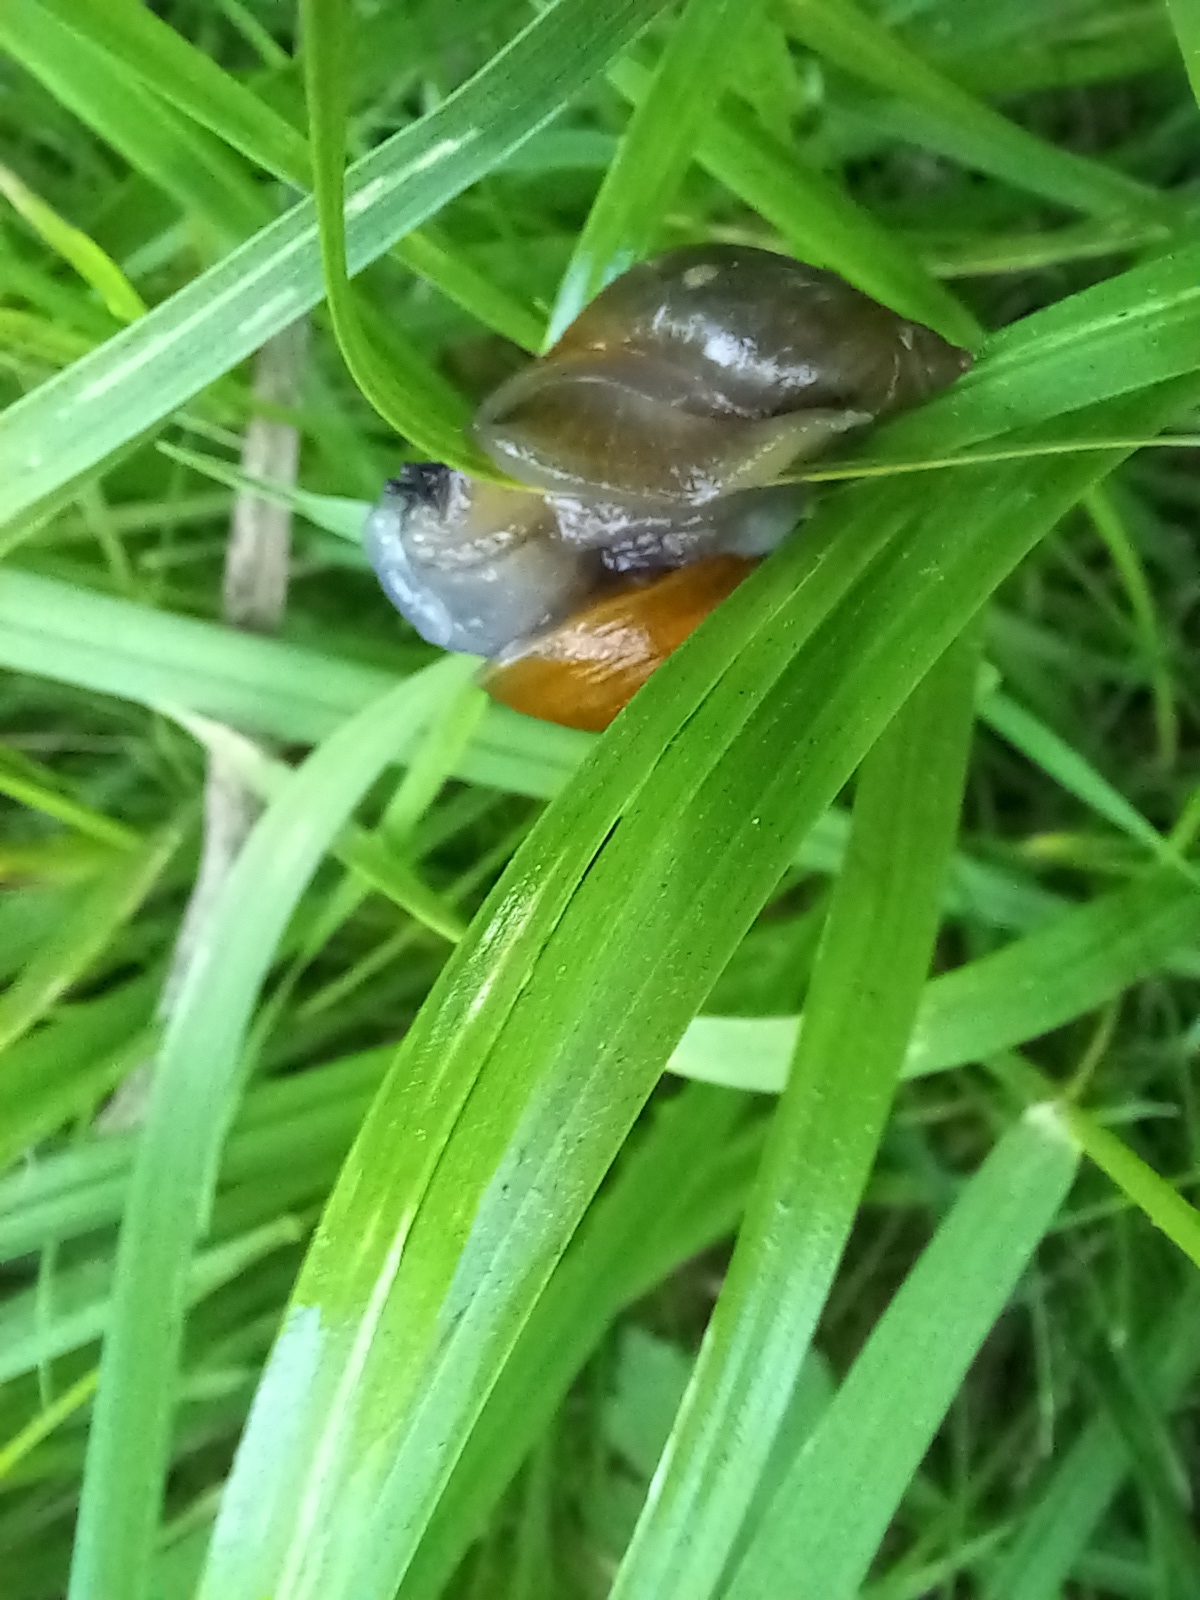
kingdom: Animalia
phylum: Mollusca
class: Gastropoda
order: Stylommatophora
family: Succineidae
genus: Succinea
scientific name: Succinea putris
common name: European ambersnail
